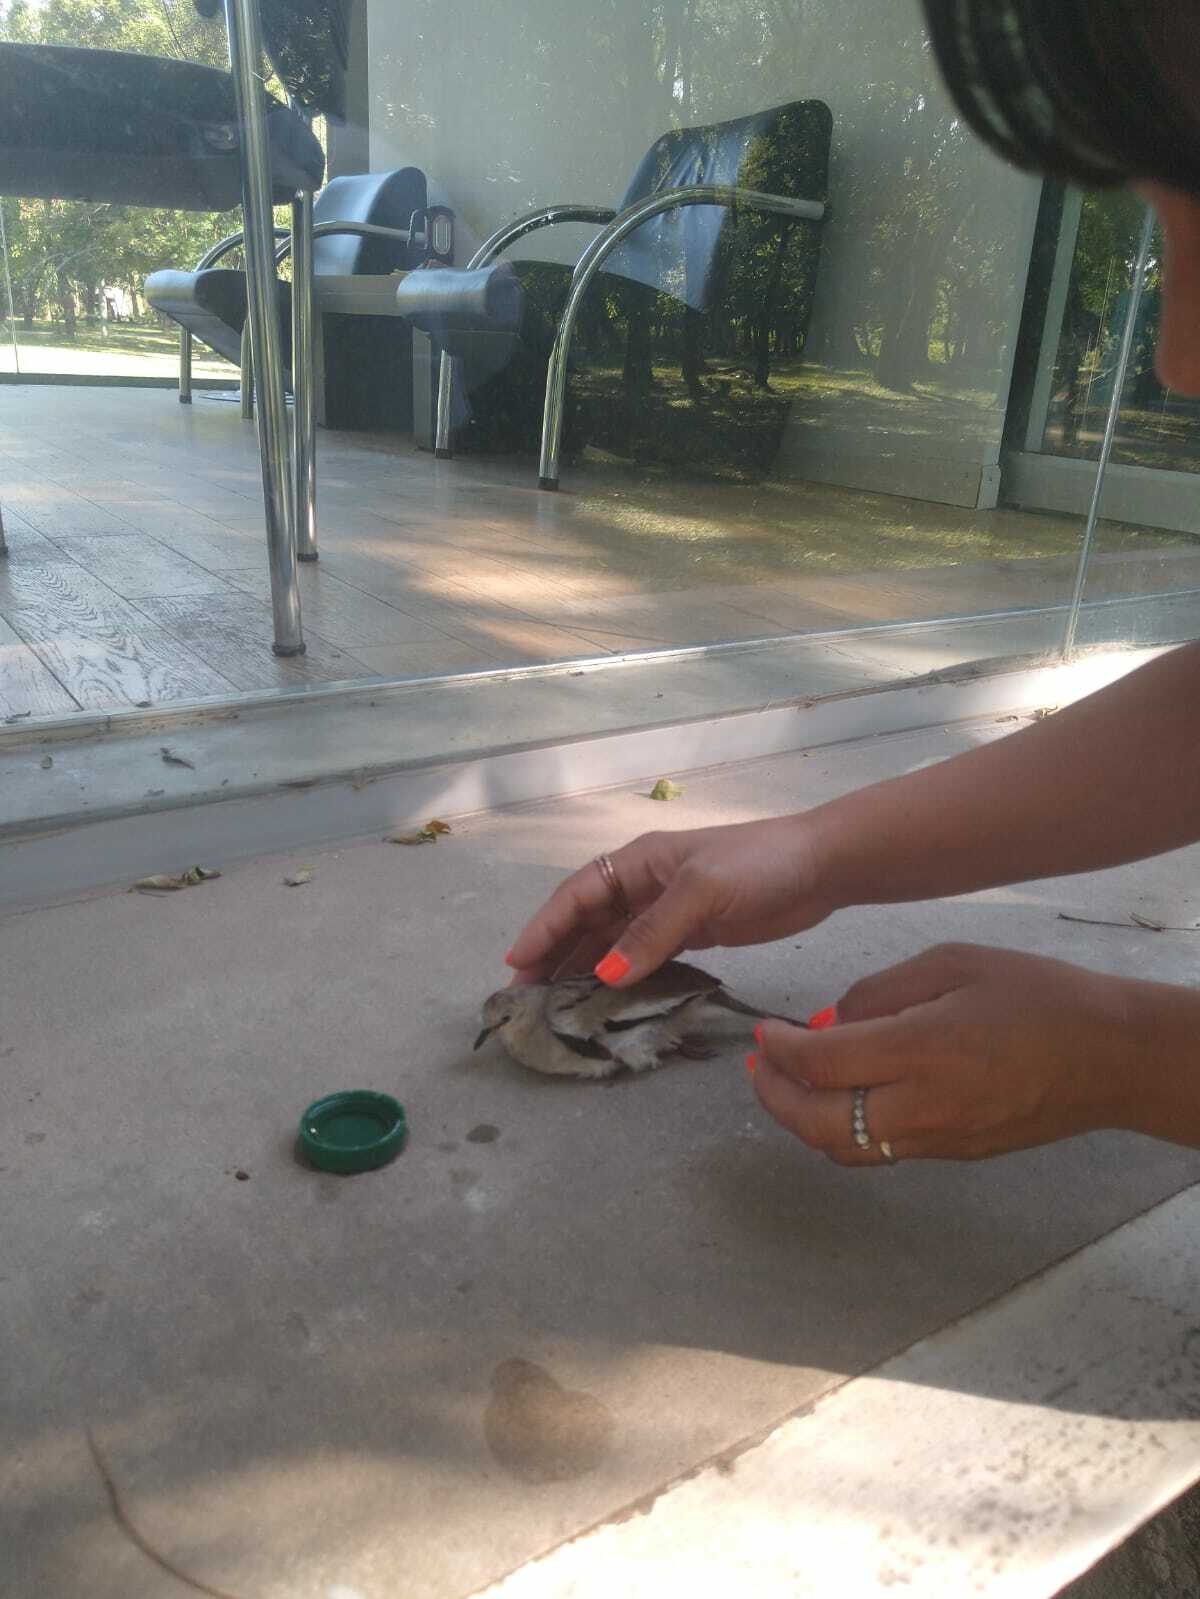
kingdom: Animalia
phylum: Chordata
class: Aves
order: Columbiformes
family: Columbidae
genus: Columbina
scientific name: Columbina picui
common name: Picui ground dove
